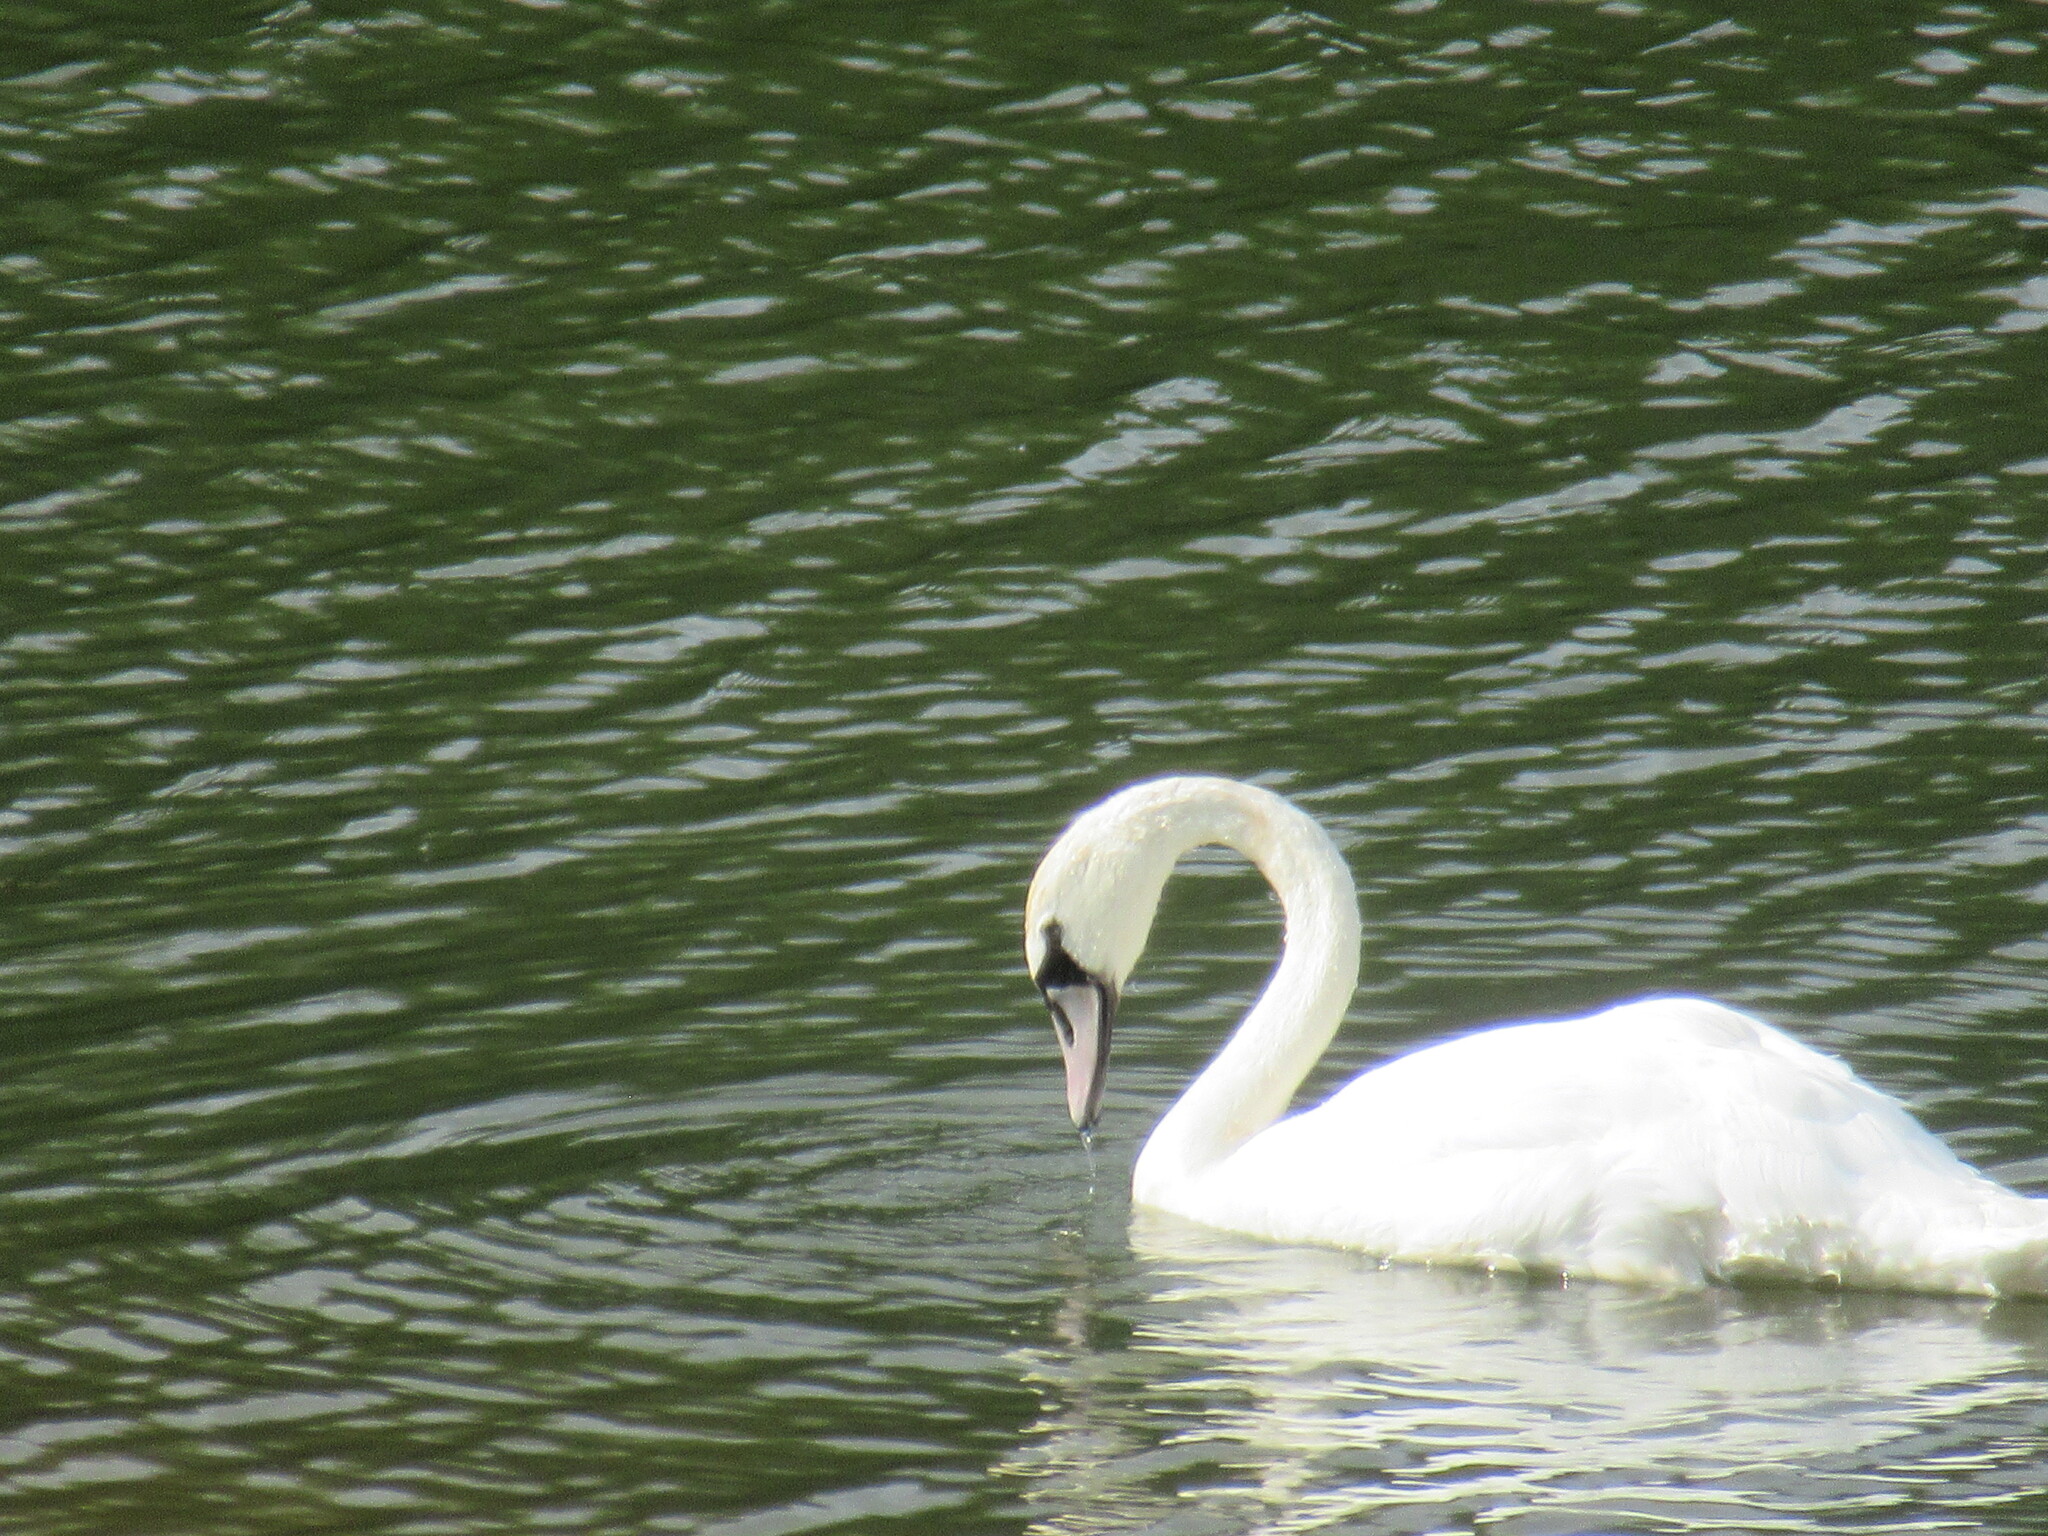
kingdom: Animalia
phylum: Chordata
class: Aves
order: Anseriformes
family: Anatidae
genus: Cygnus
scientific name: Cygnus olor
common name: Mute swan
